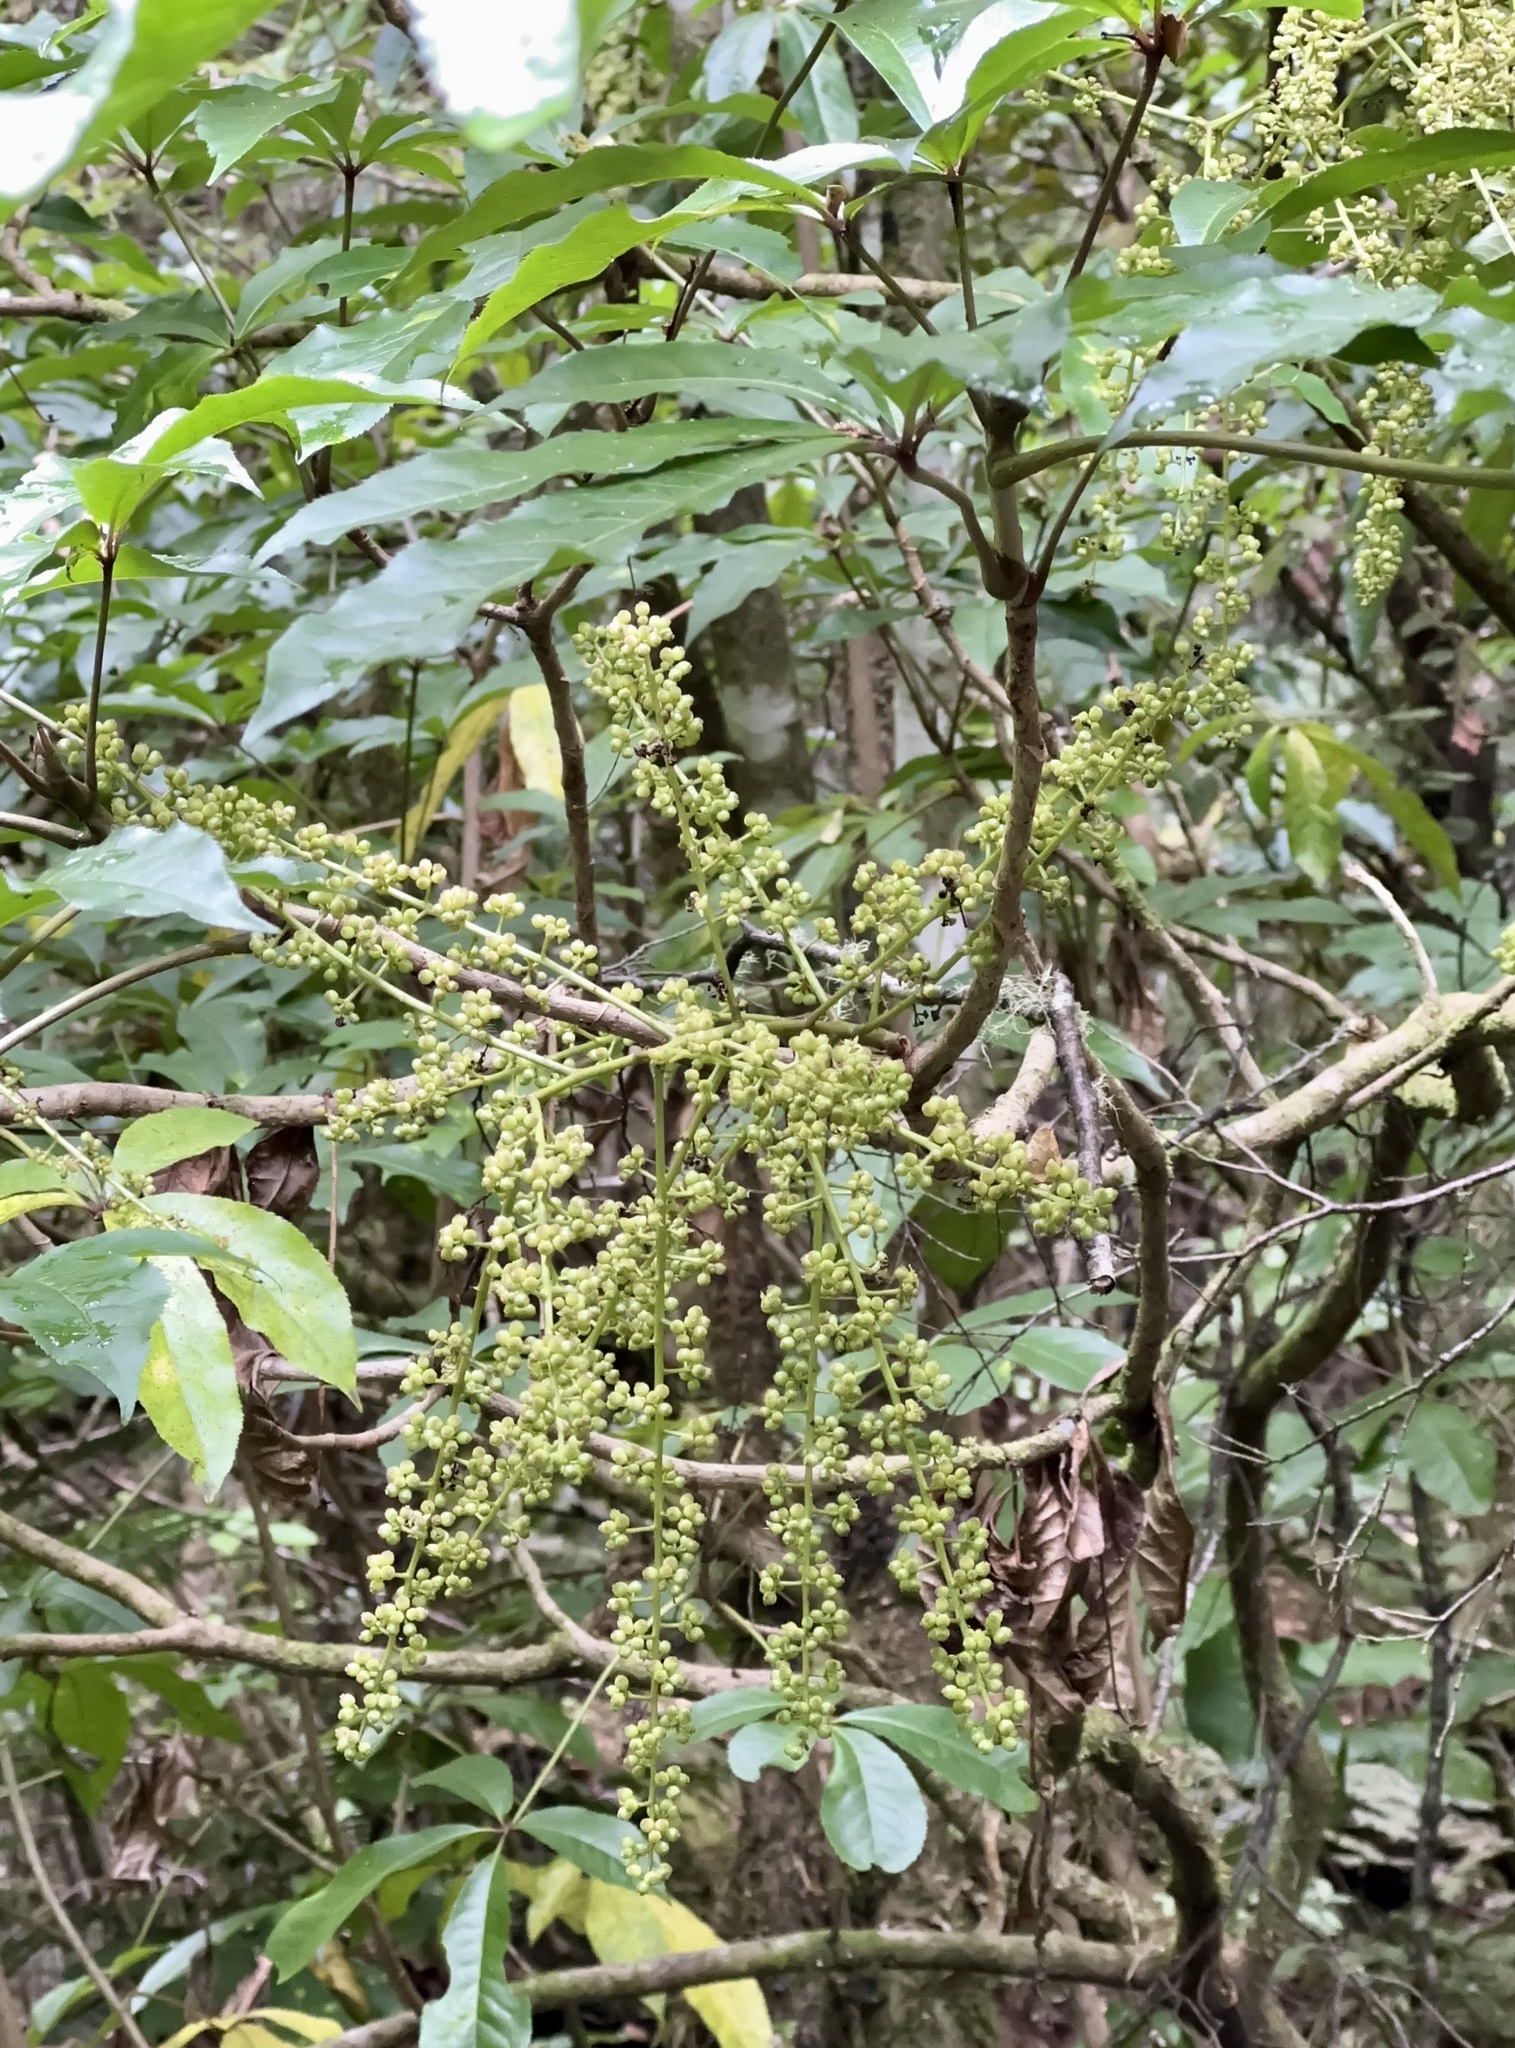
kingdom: Plantae
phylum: Tracheophyta
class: Magnoliopsida
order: Apiales
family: Araliaceae
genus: Schefflera
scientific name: Schefflera digitata
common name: Pate
